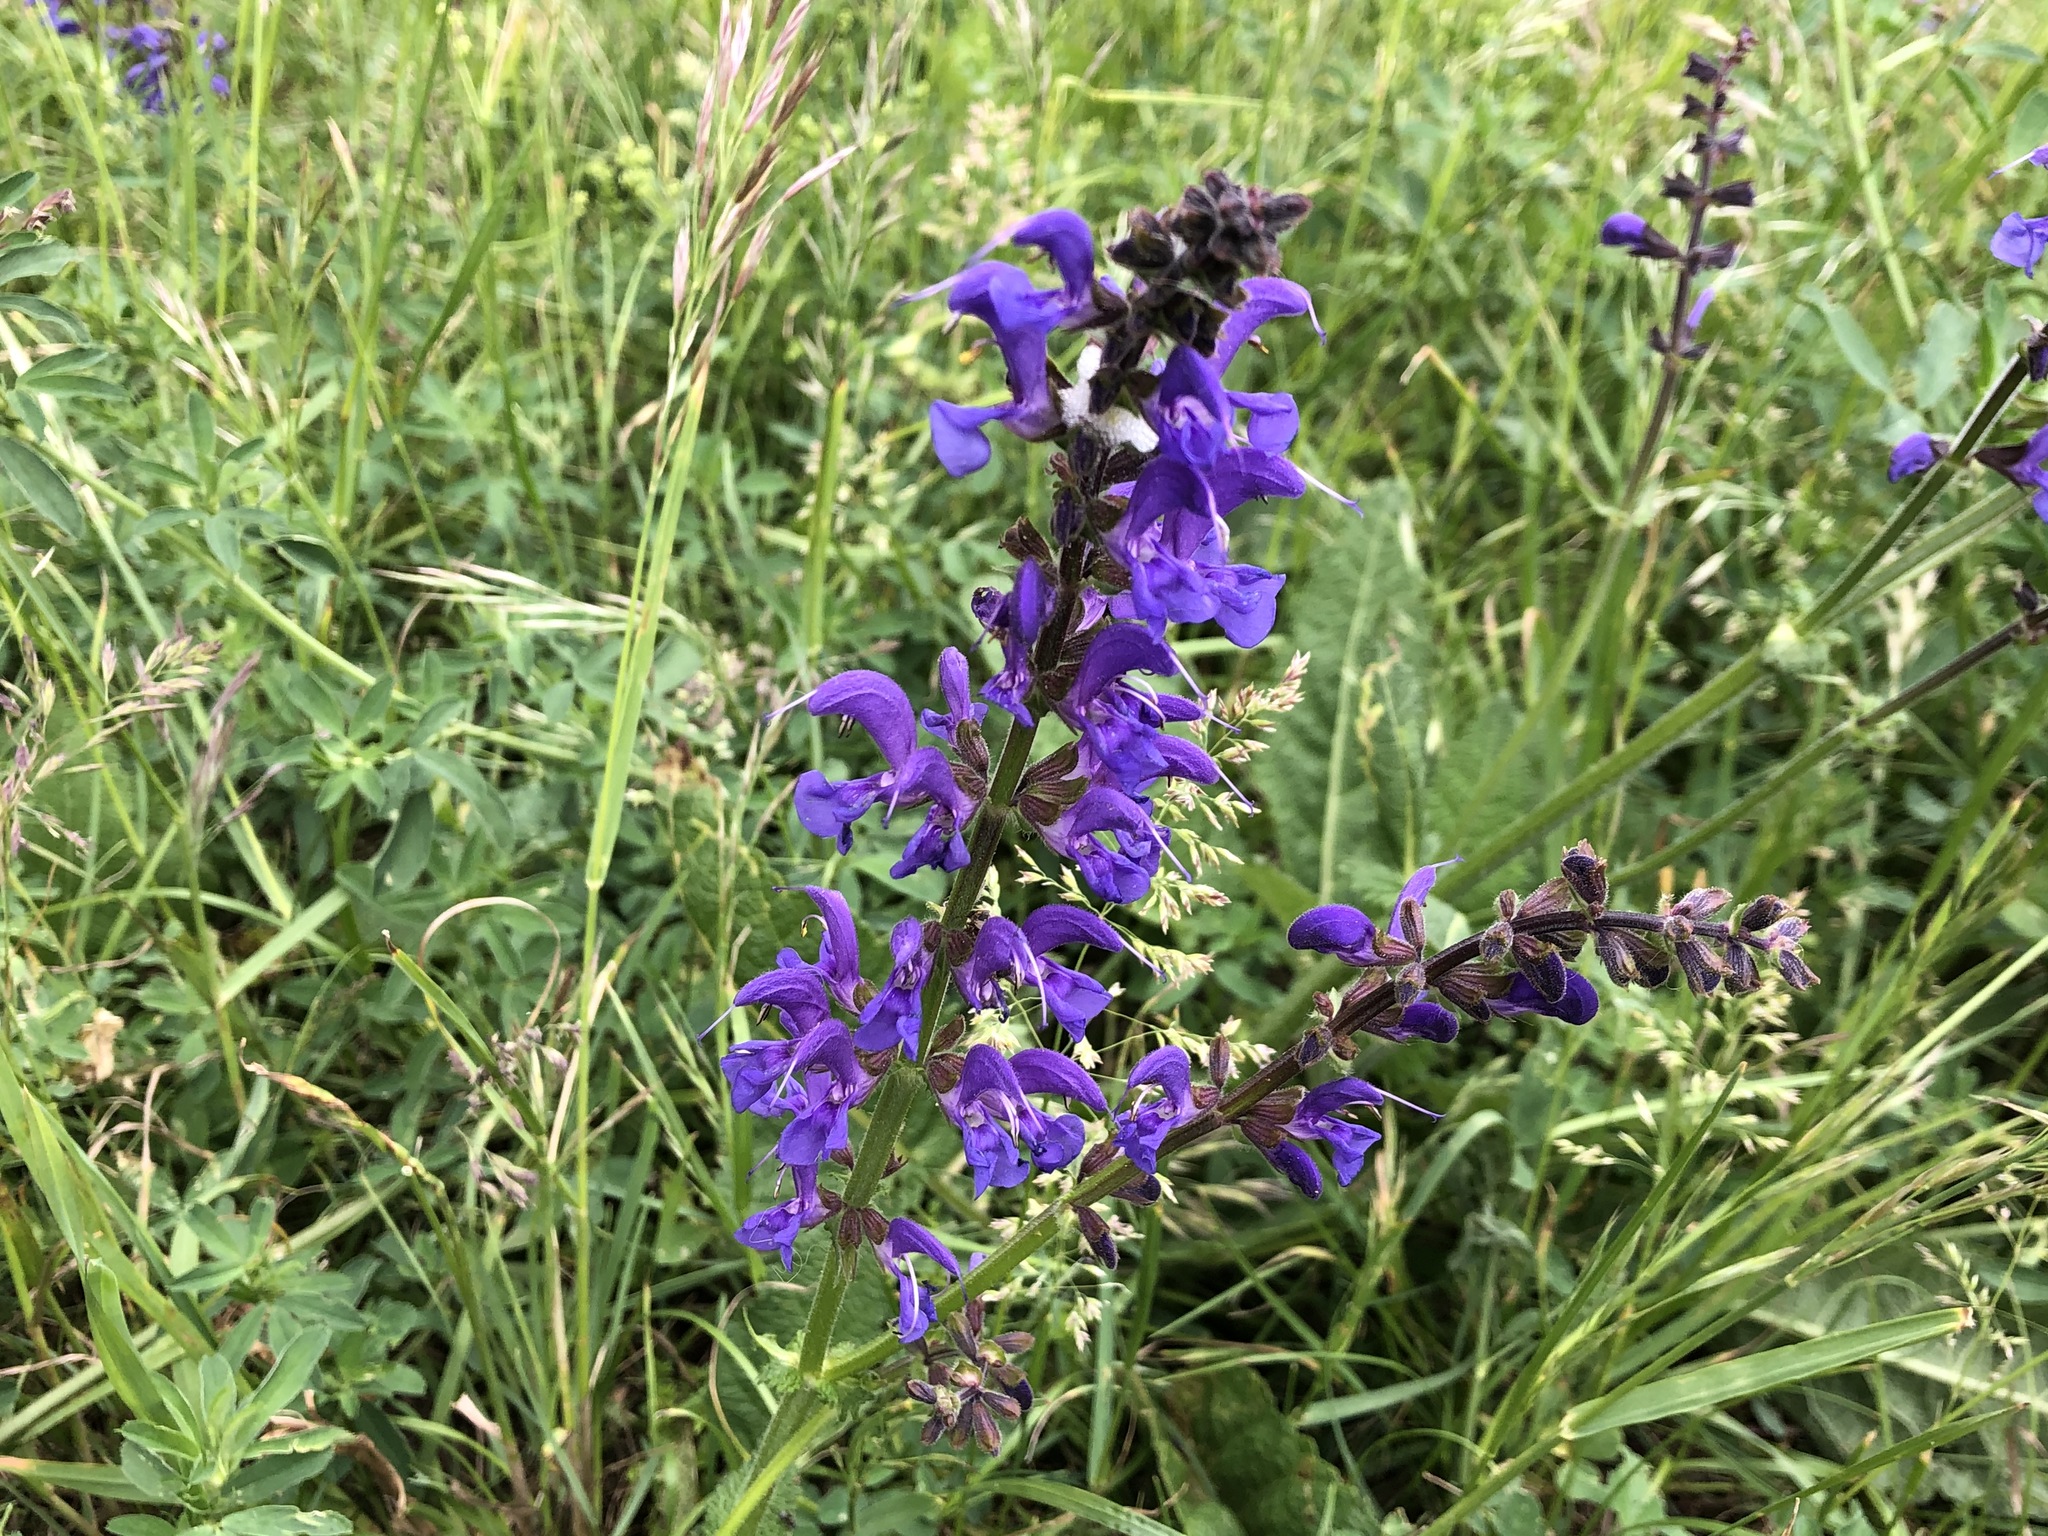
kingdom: Plantae
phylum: Tracheophyta
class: Magnoliopsida
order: Lamiales
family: Lamiaceae
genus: Salvia
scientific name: Salvia pratensis
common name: Meadow sage
